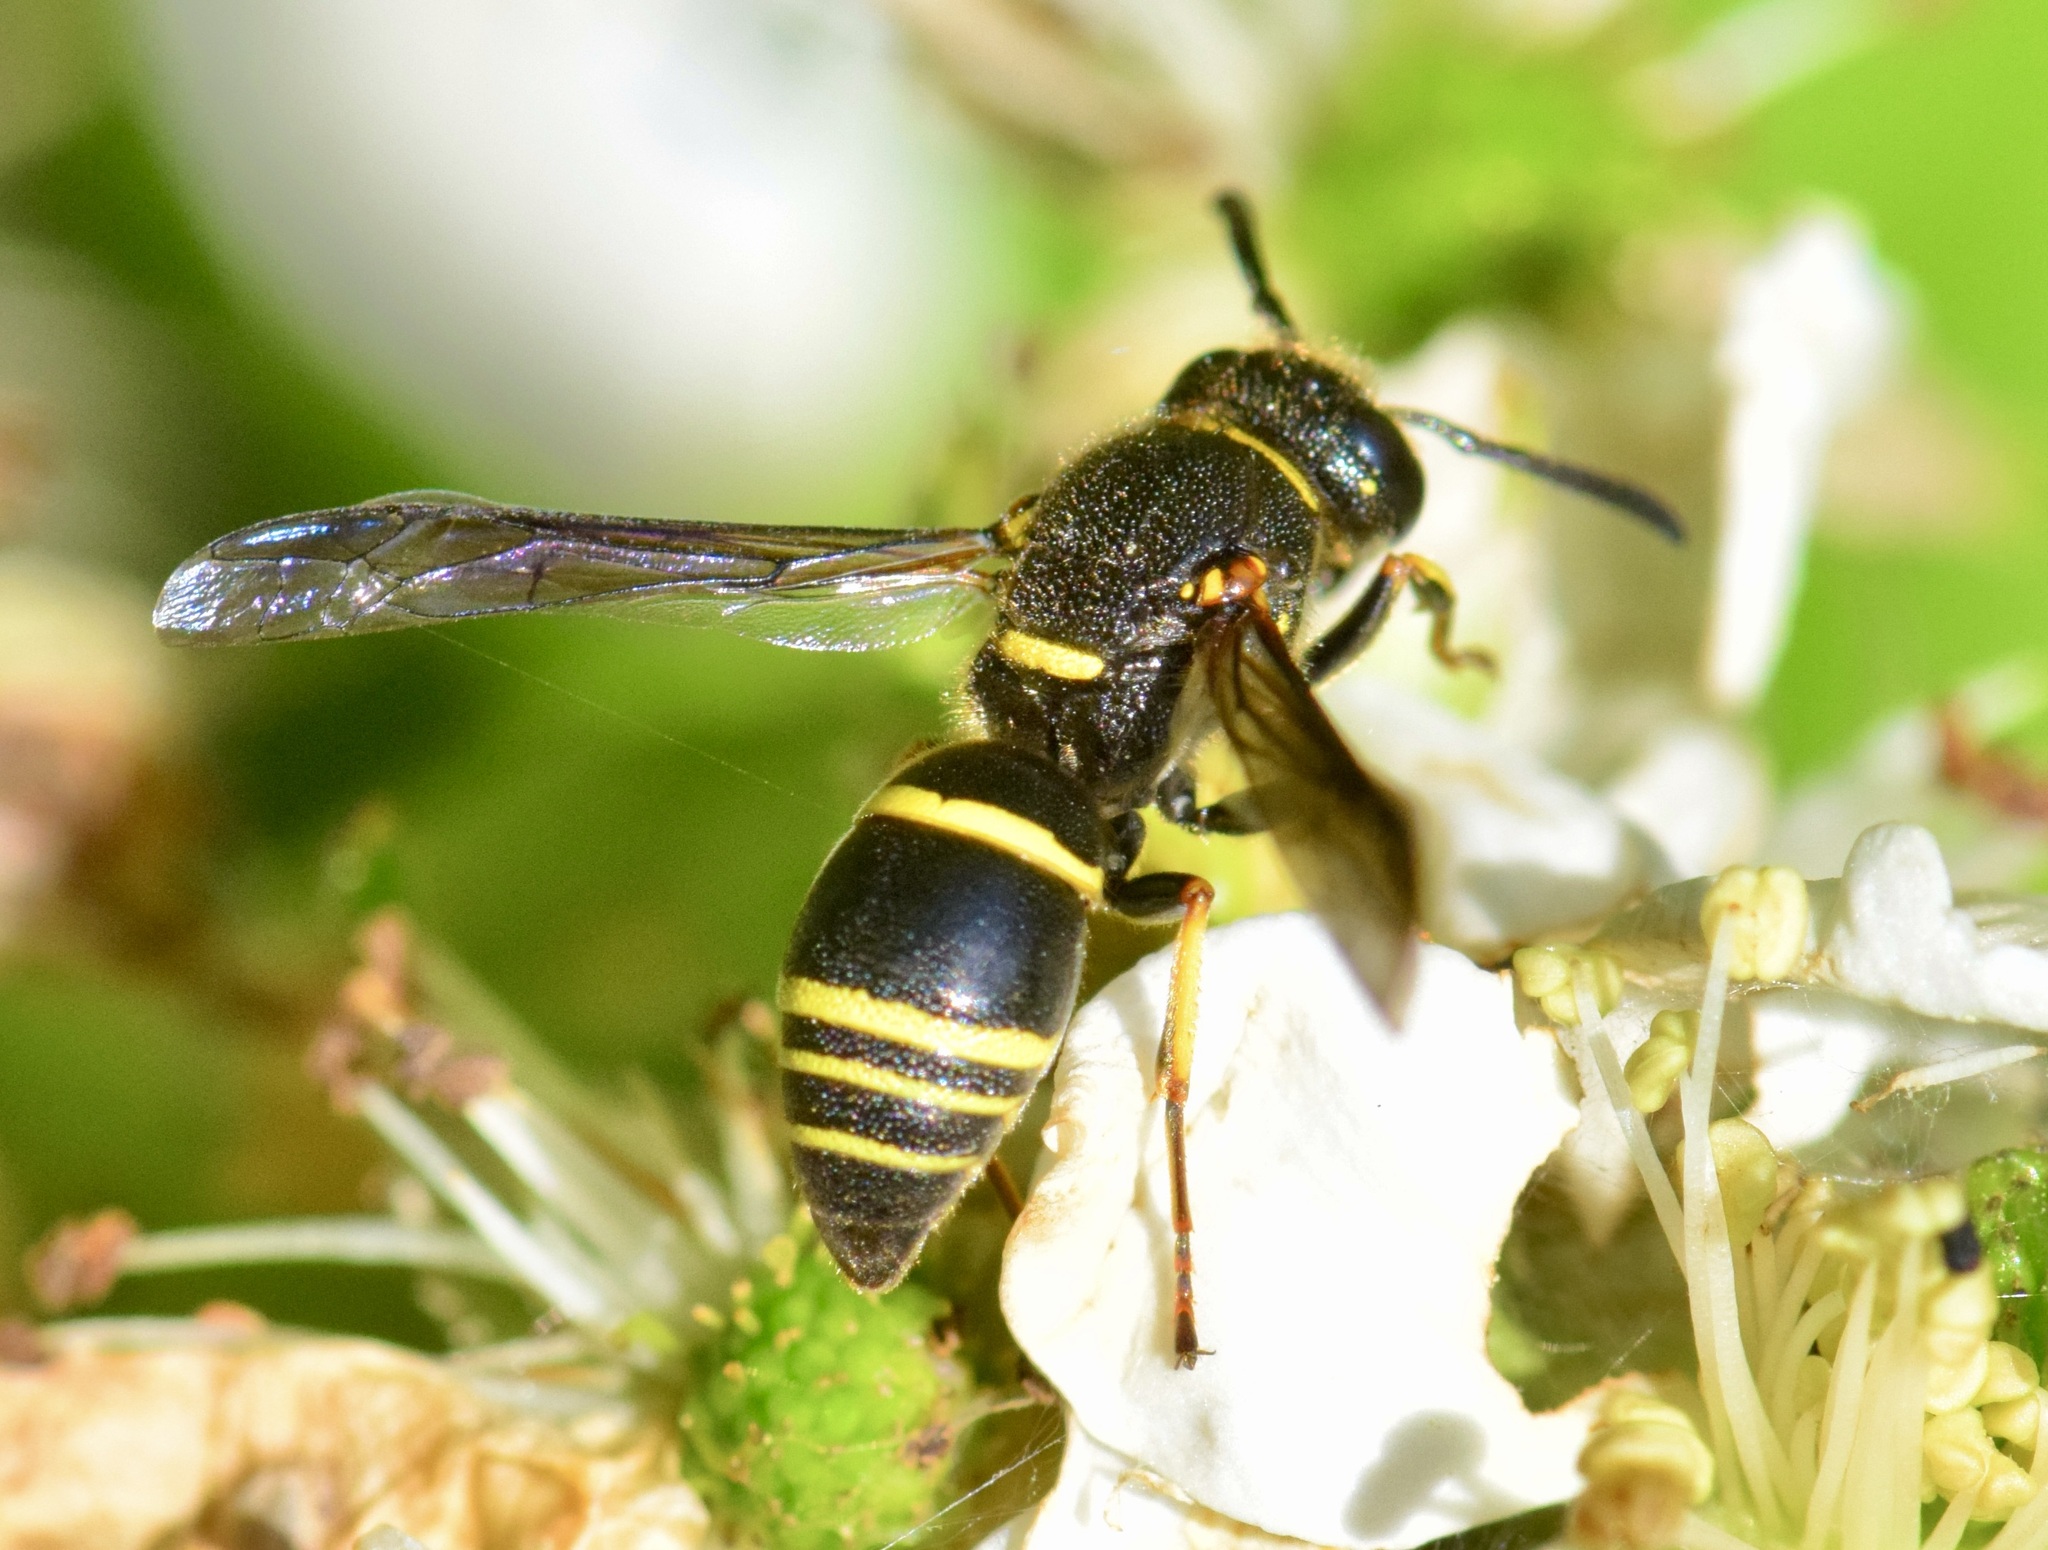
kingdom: Animalia
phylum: Arthropoda
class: Insecta
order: Hymenoptera
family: Eumenidae
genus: Euodynerus
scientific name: Euodynerus foraminatus
